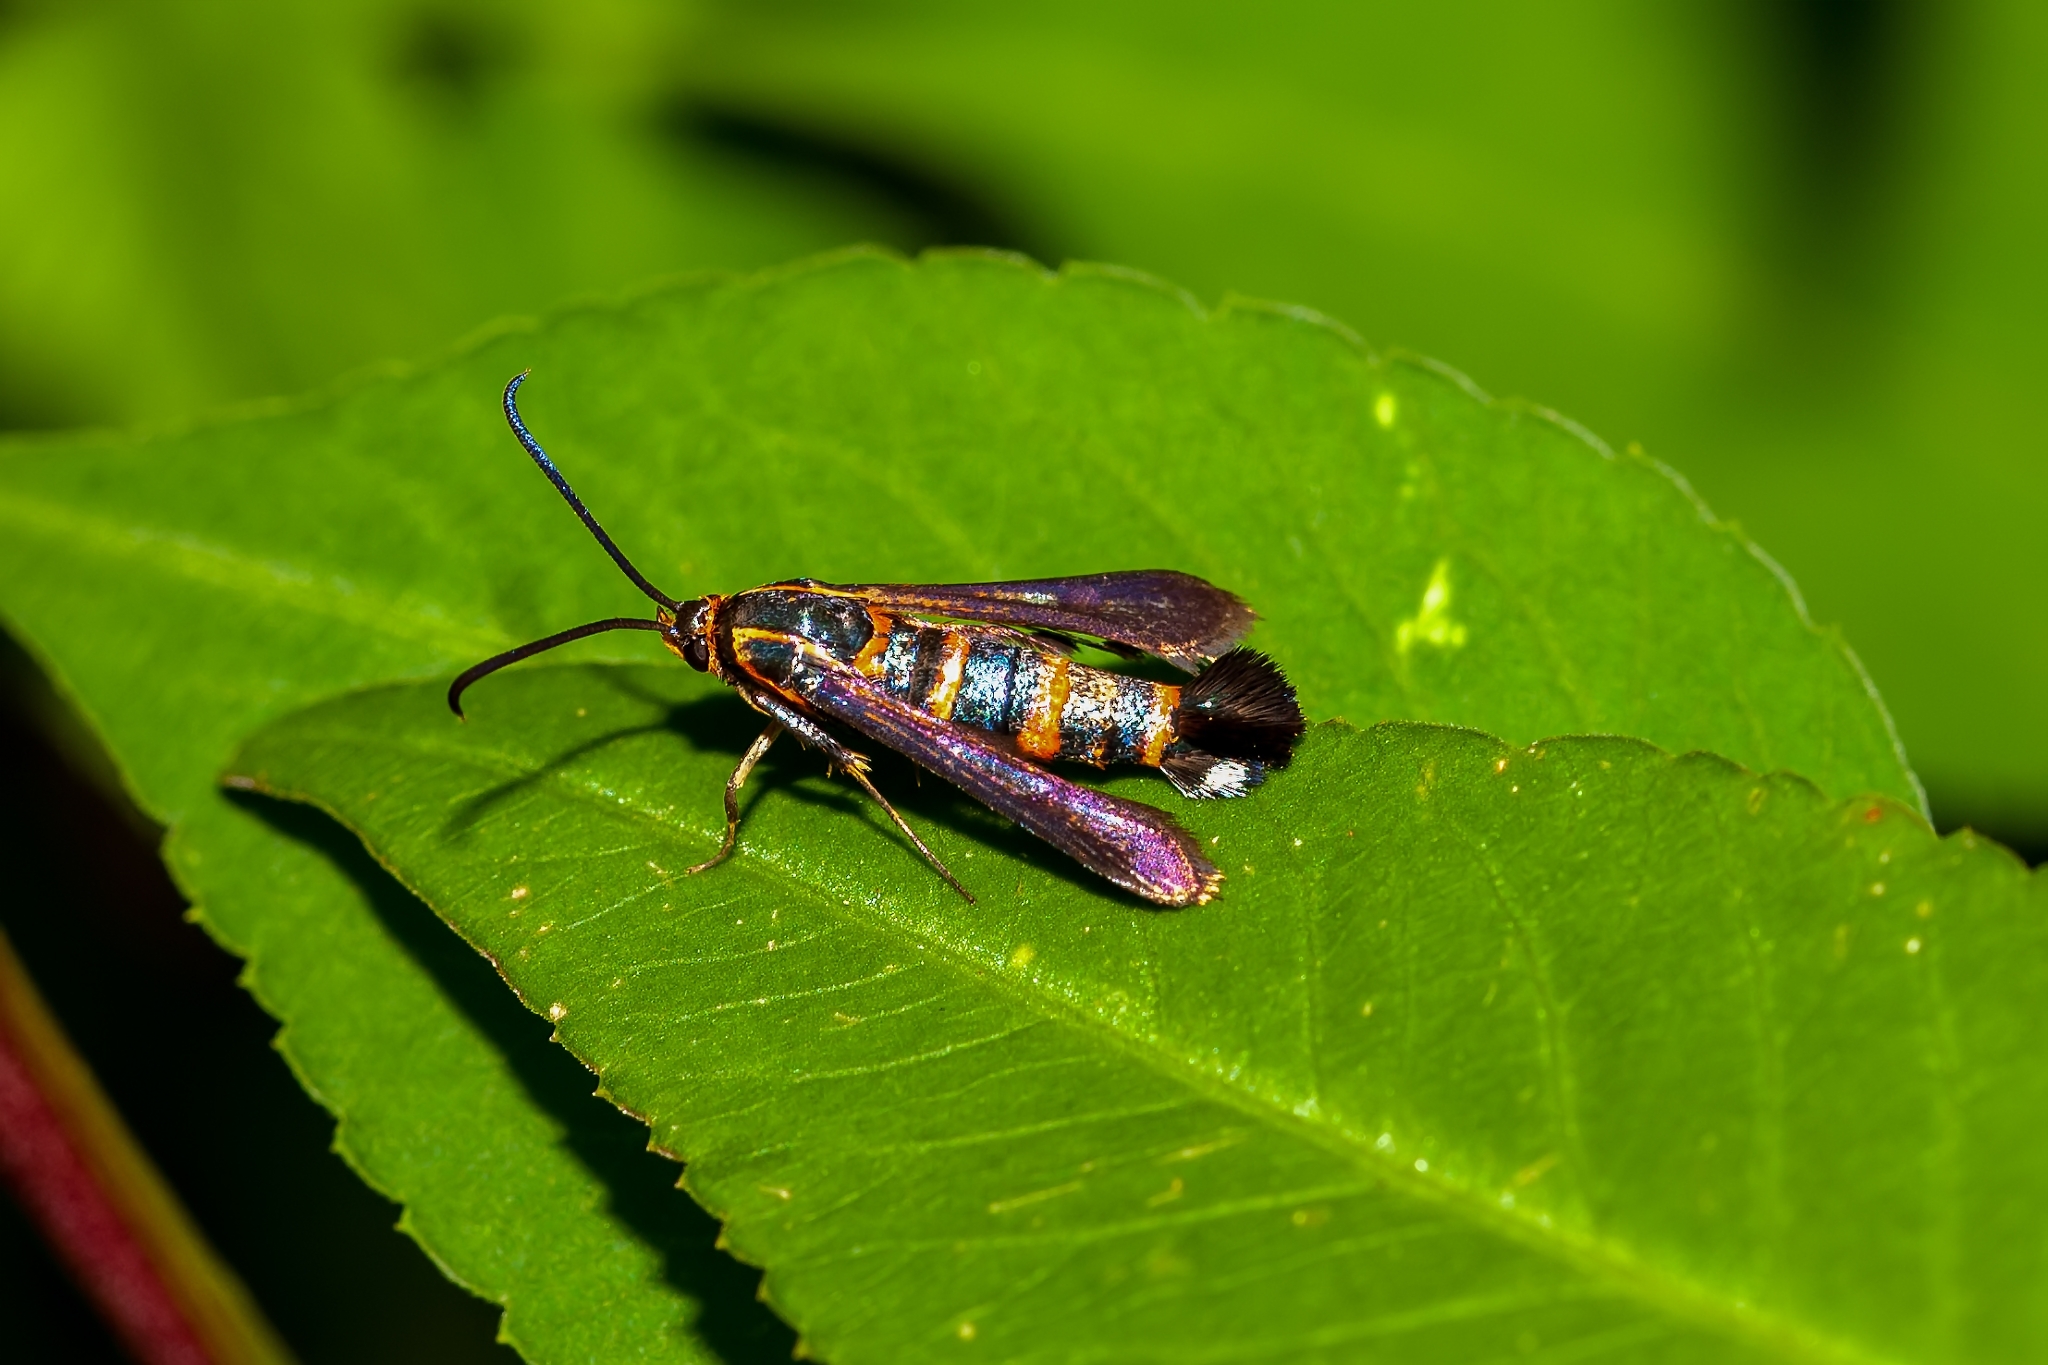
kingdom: Animalia
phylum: Arthropoda
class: Insecta
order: Lepidoptera
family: Sesiidae
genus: Carmenta
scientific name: Carmenta texana
